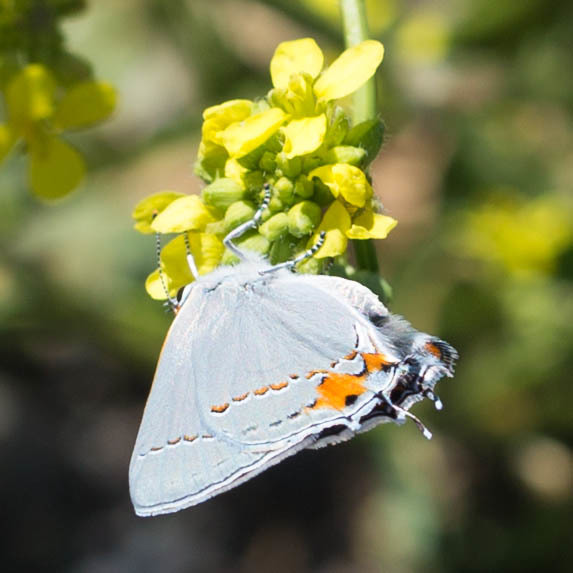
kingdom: Animalia
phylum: Arthropoda
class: Insecta
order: Lepidoptera
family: Lycaenidae
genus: Strymon
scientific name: Strymon melinus
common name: Gray hairstreak
